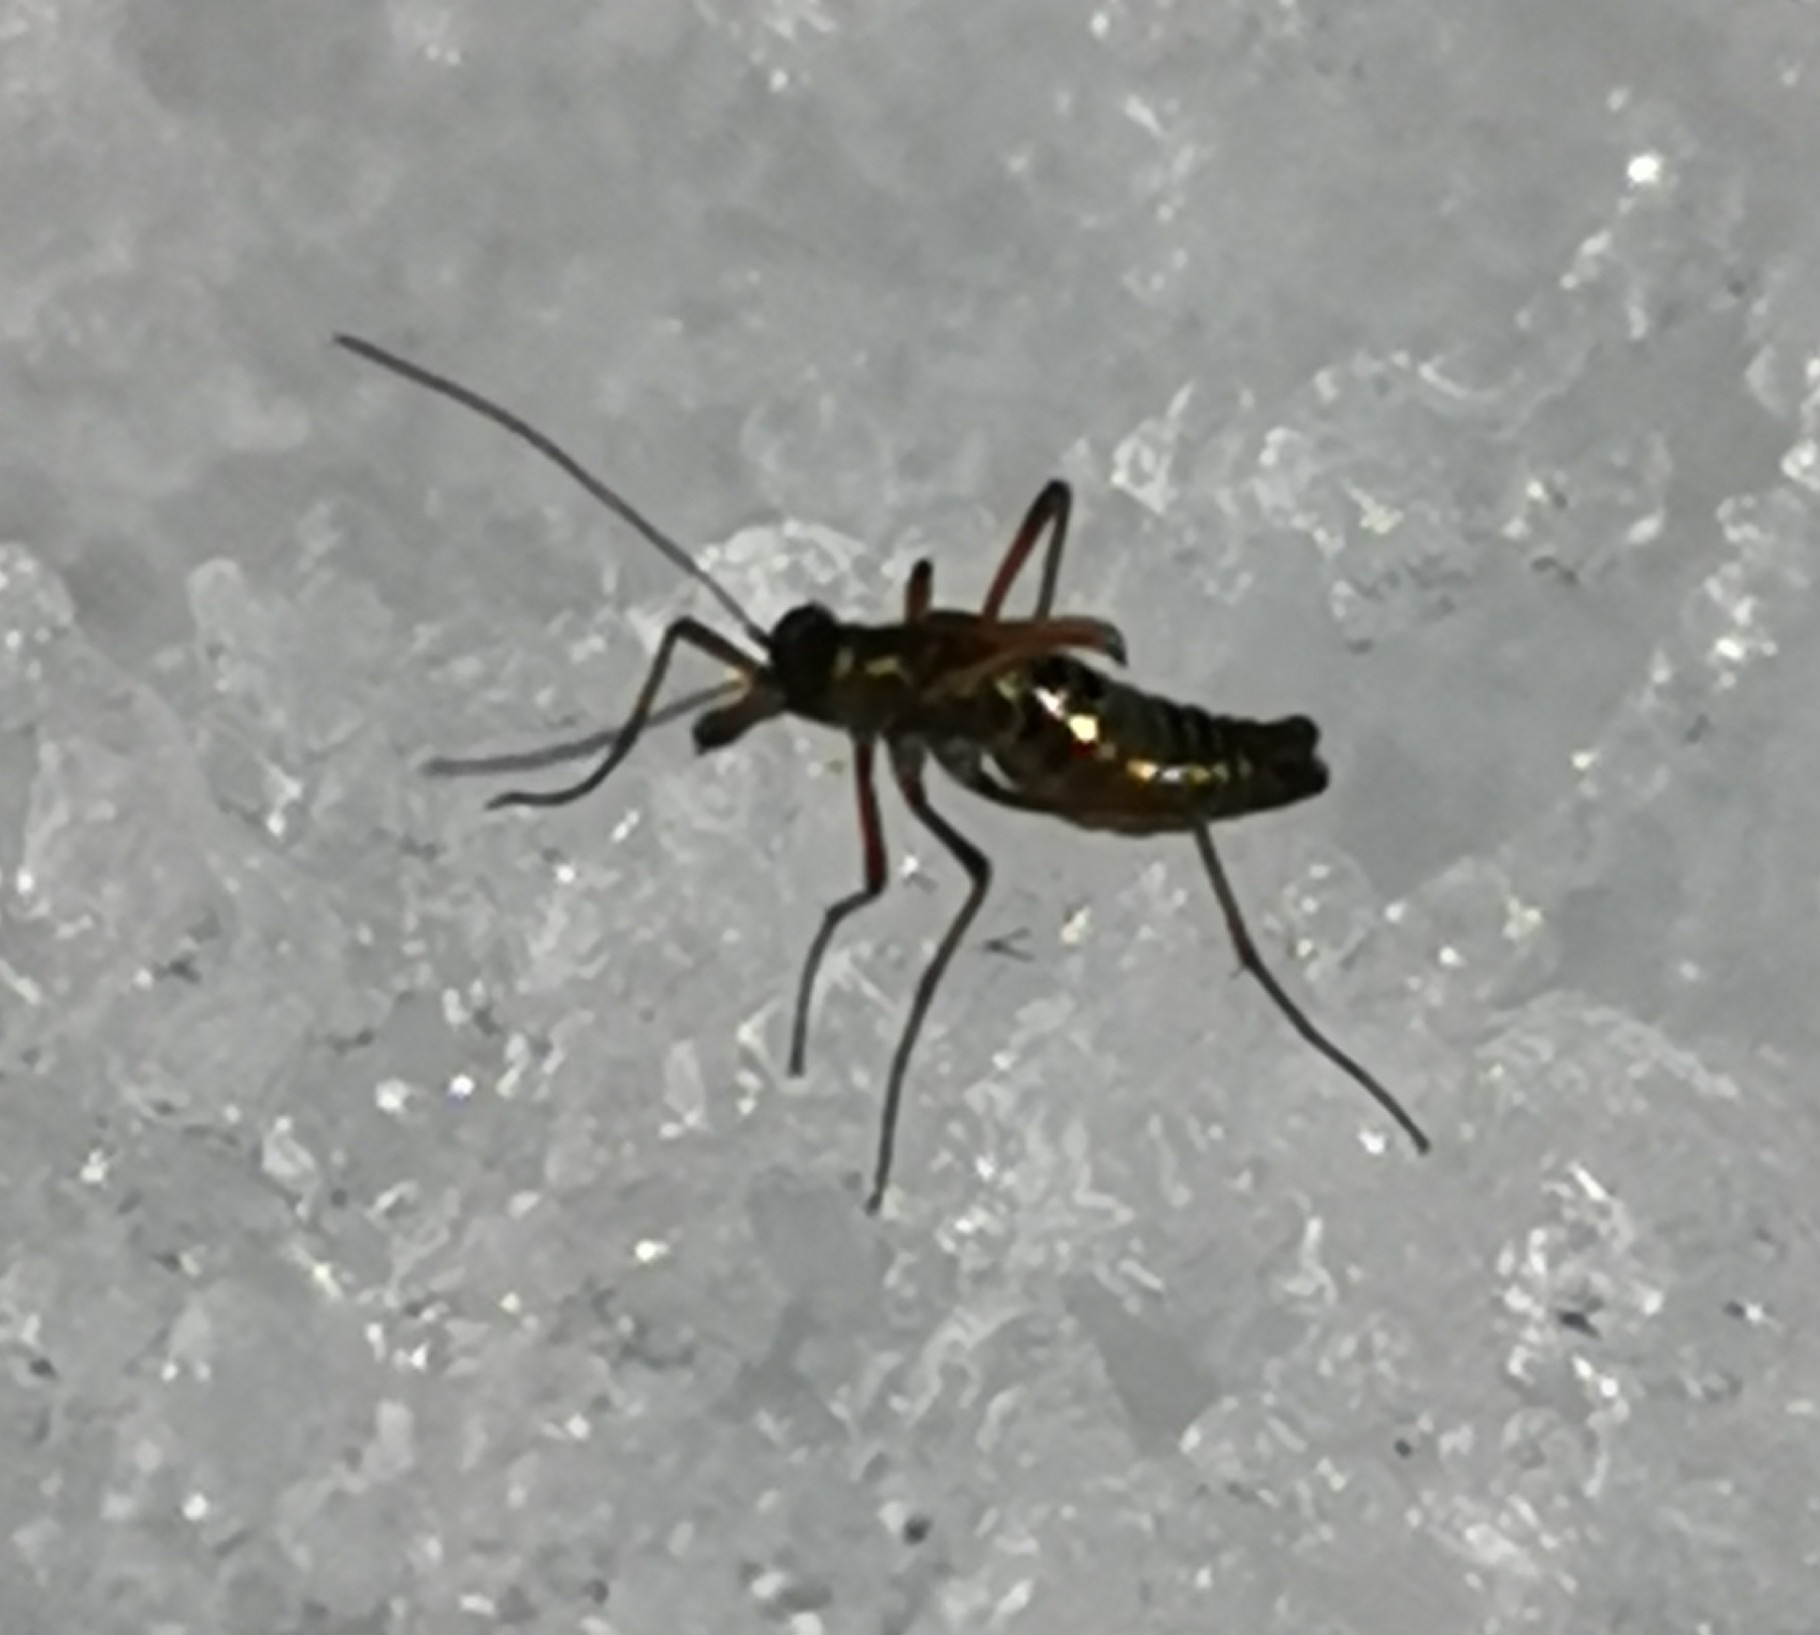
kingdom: Animalia
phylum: Arthropoda
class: Insecta
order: Mecoptera
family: Boreidae
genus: Boreus
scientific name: Boreus westwoodi
